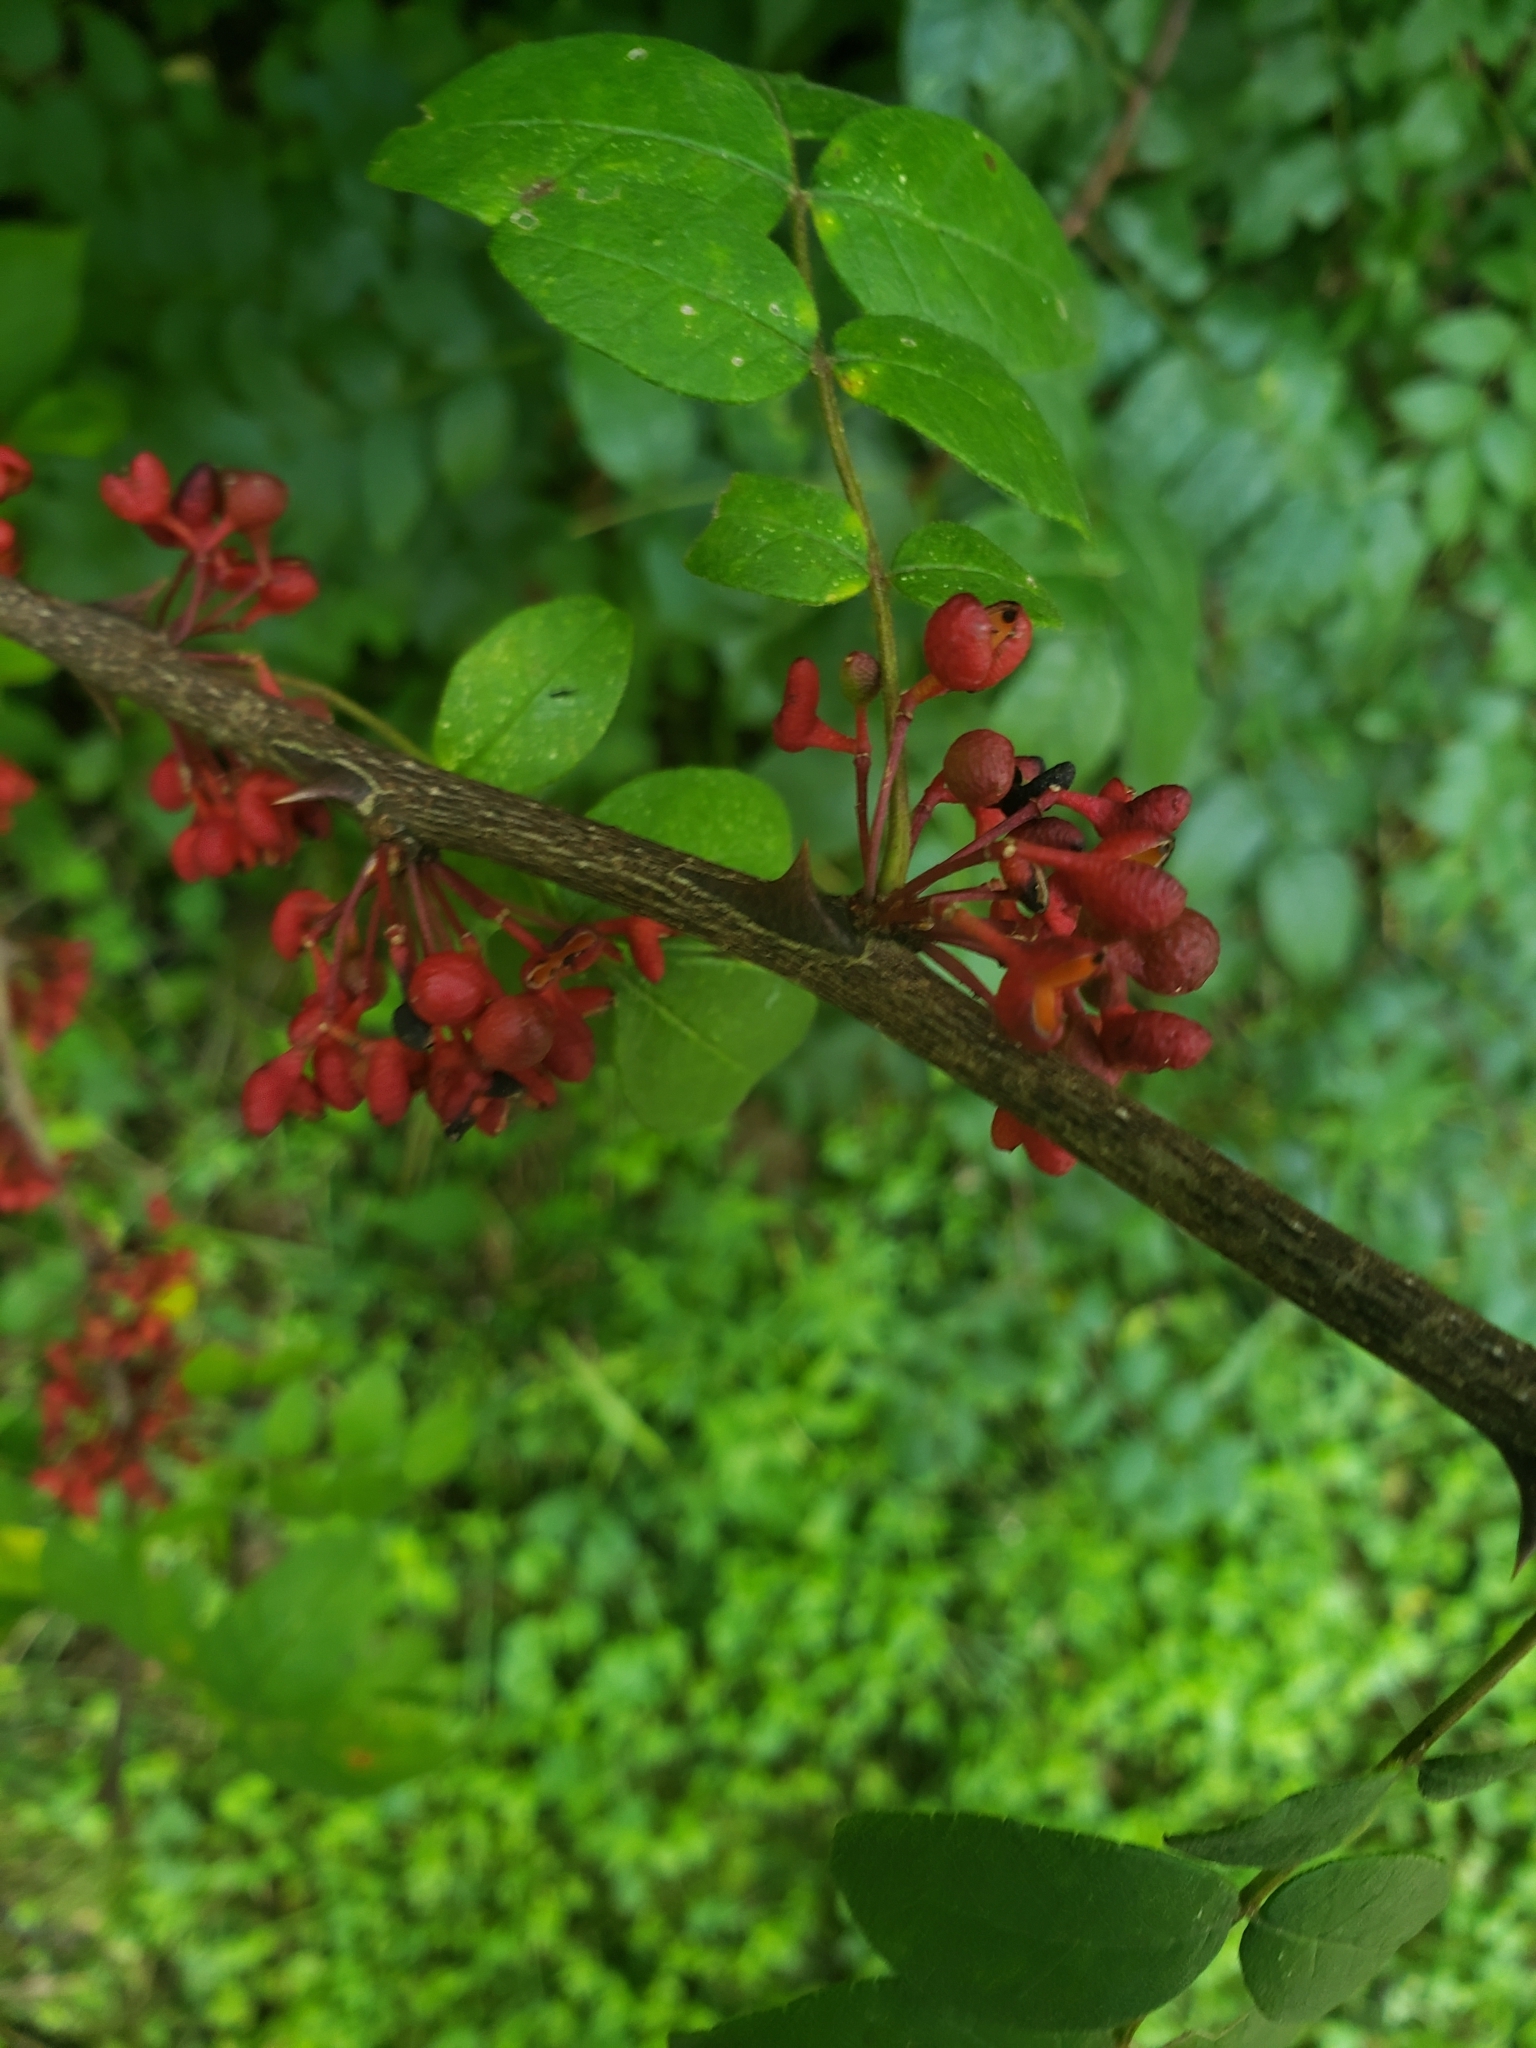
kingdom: Plantae
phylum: Tracheophyta
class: Magnoliopsida
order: Sapindales
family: Rutaceae
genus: Zanthoxylum
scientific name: Zanthoxylum americanum
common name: Northern prickly-ash
